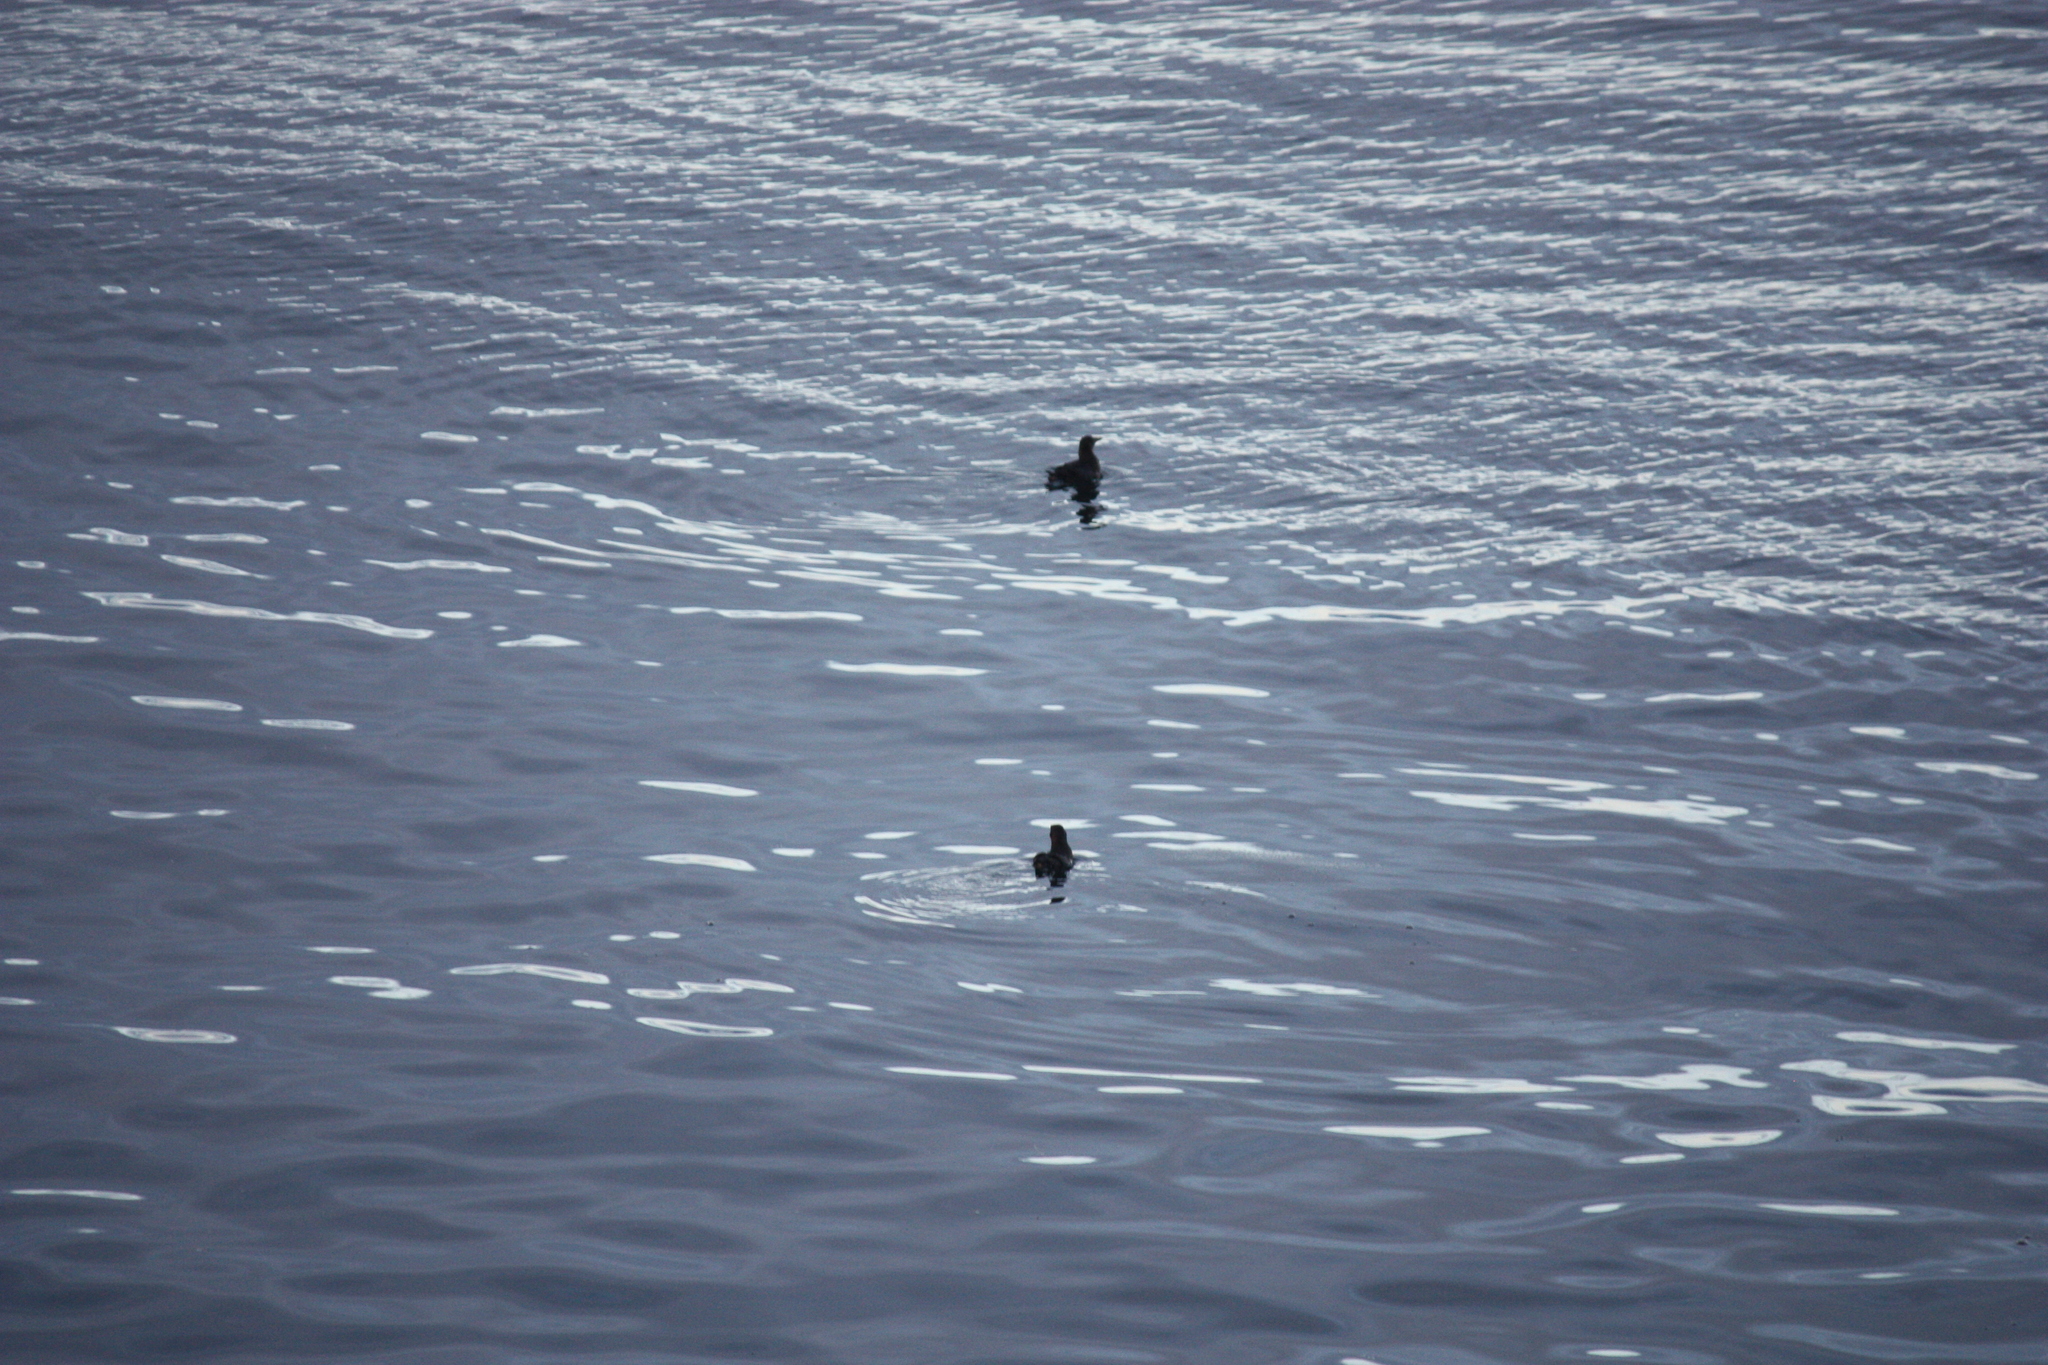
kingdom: Animalia
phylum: Chordata
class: Aves
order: Charadriiformes
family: Alcidae
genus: Cerorhinca
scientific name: Cerorhinca monocerata
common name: Rhinoceros auklet
